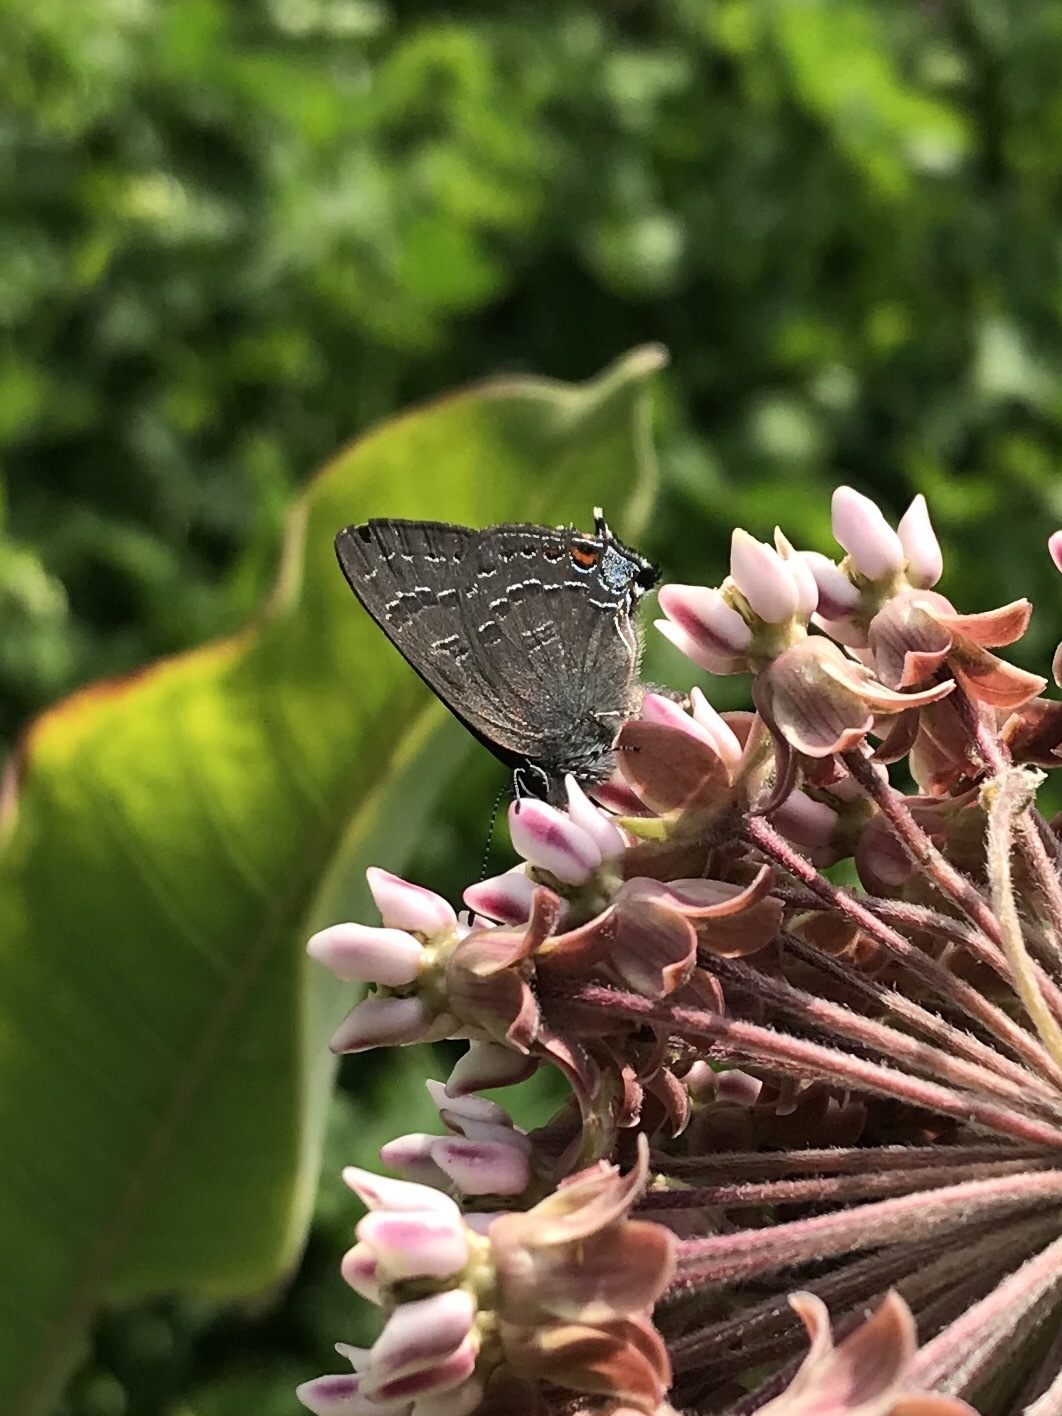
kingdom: Animalia
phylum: Arthropoda
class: Insecta
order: Lepidoptera
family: Lycaenidae
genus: Satyrium
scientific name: Satyrium calanus
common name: Banded hairstreak
